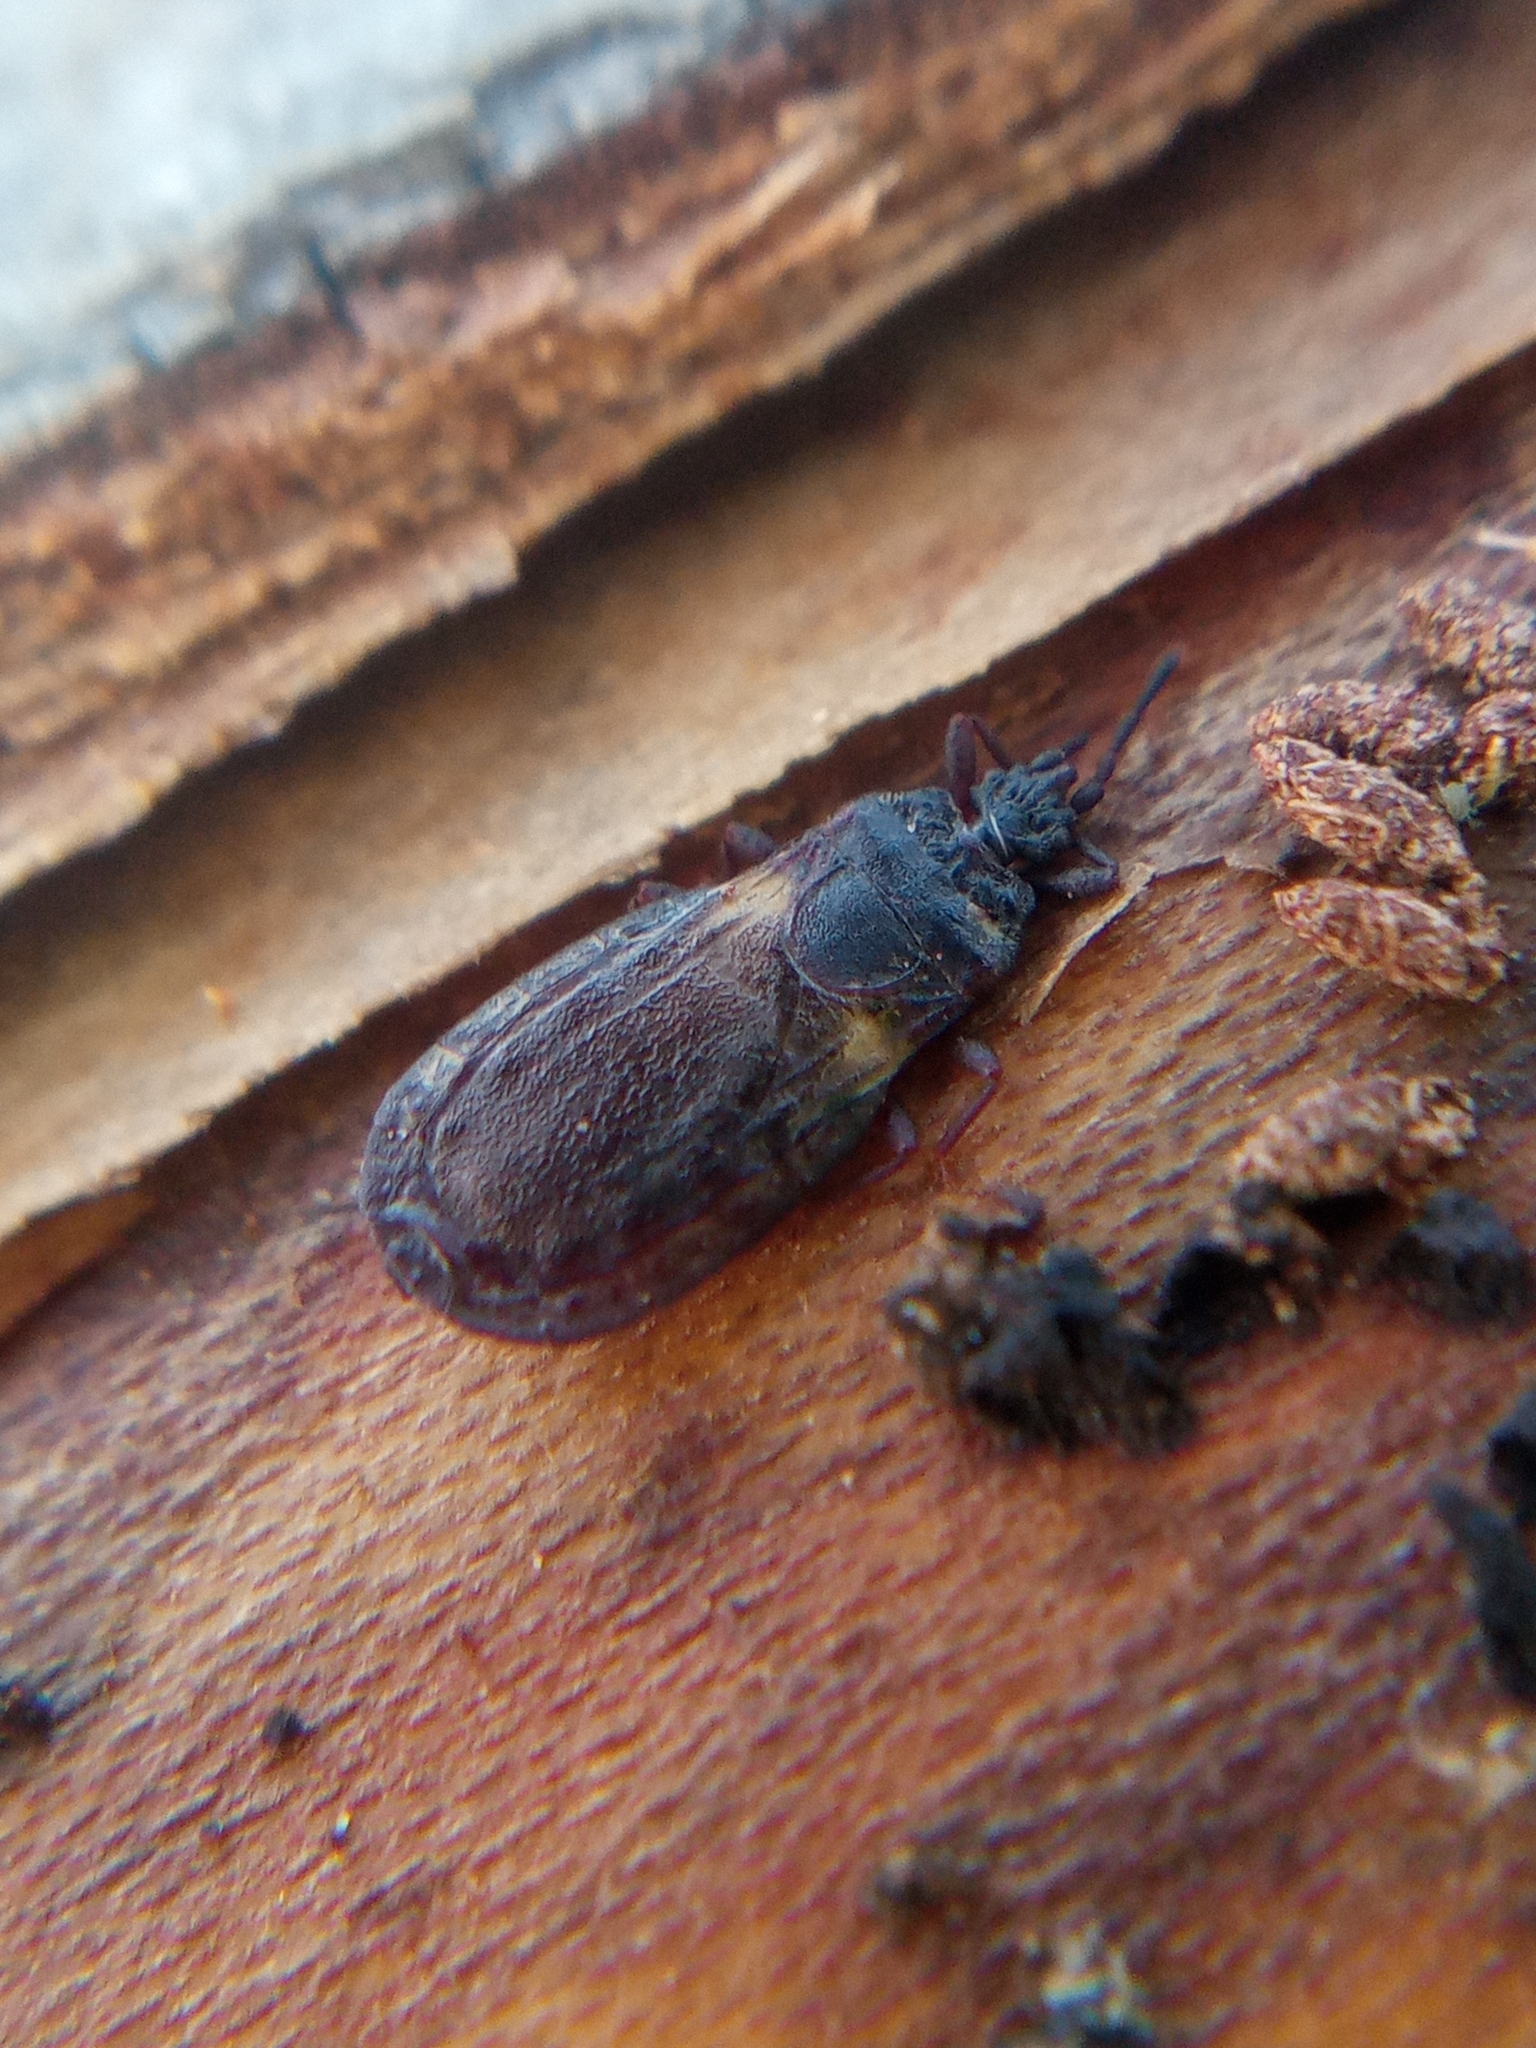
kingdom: Animalia
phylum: Arthropoda
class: Insecta
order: Hemiptera
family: Aradidae
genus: Aneurus
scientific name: Aneurus avenius
